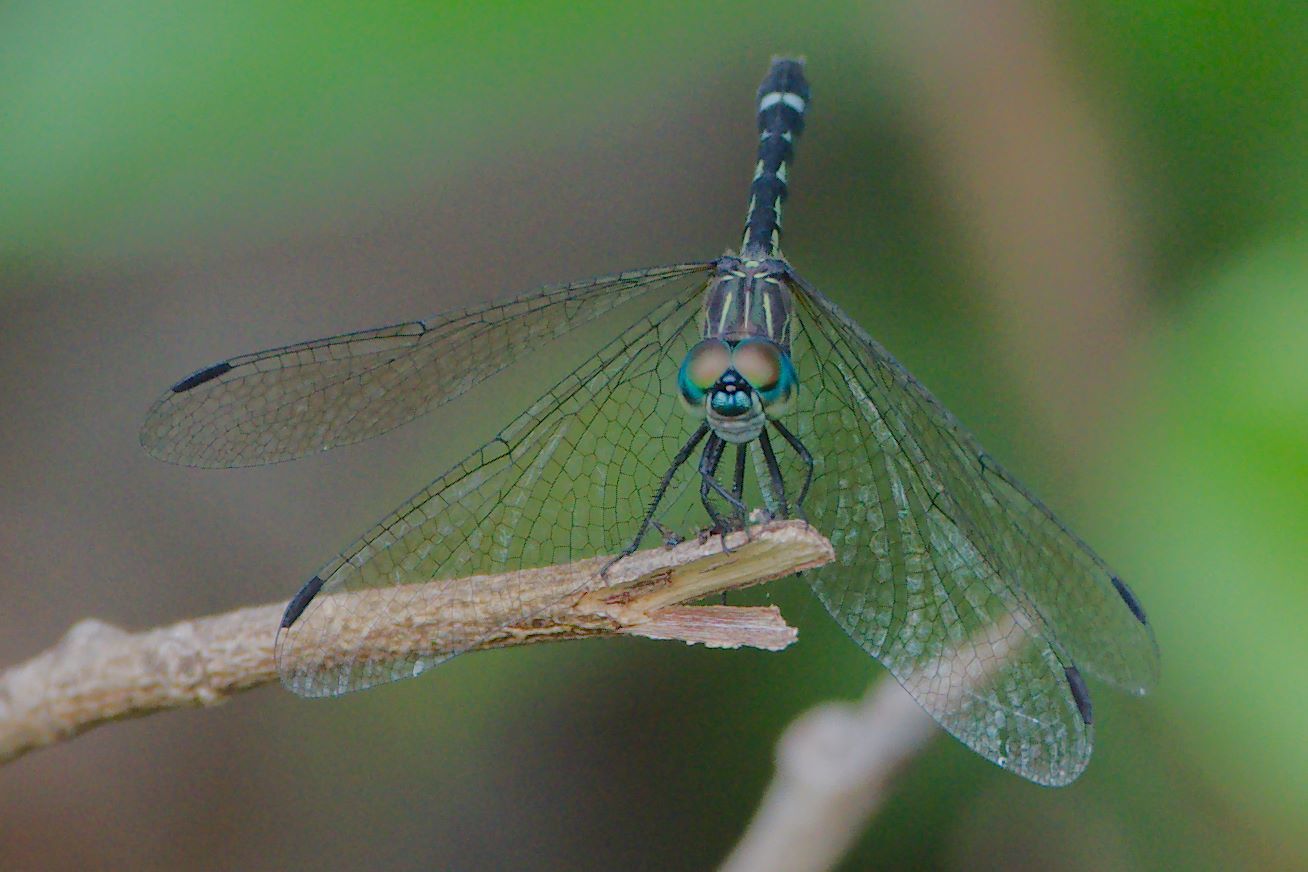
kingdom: Animalia
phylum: Arthropoda
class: Insecta
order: Odonata
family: Libellulidae
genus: Micrathyria
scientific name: Micrathyria didyma
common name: Three-striped dasher
